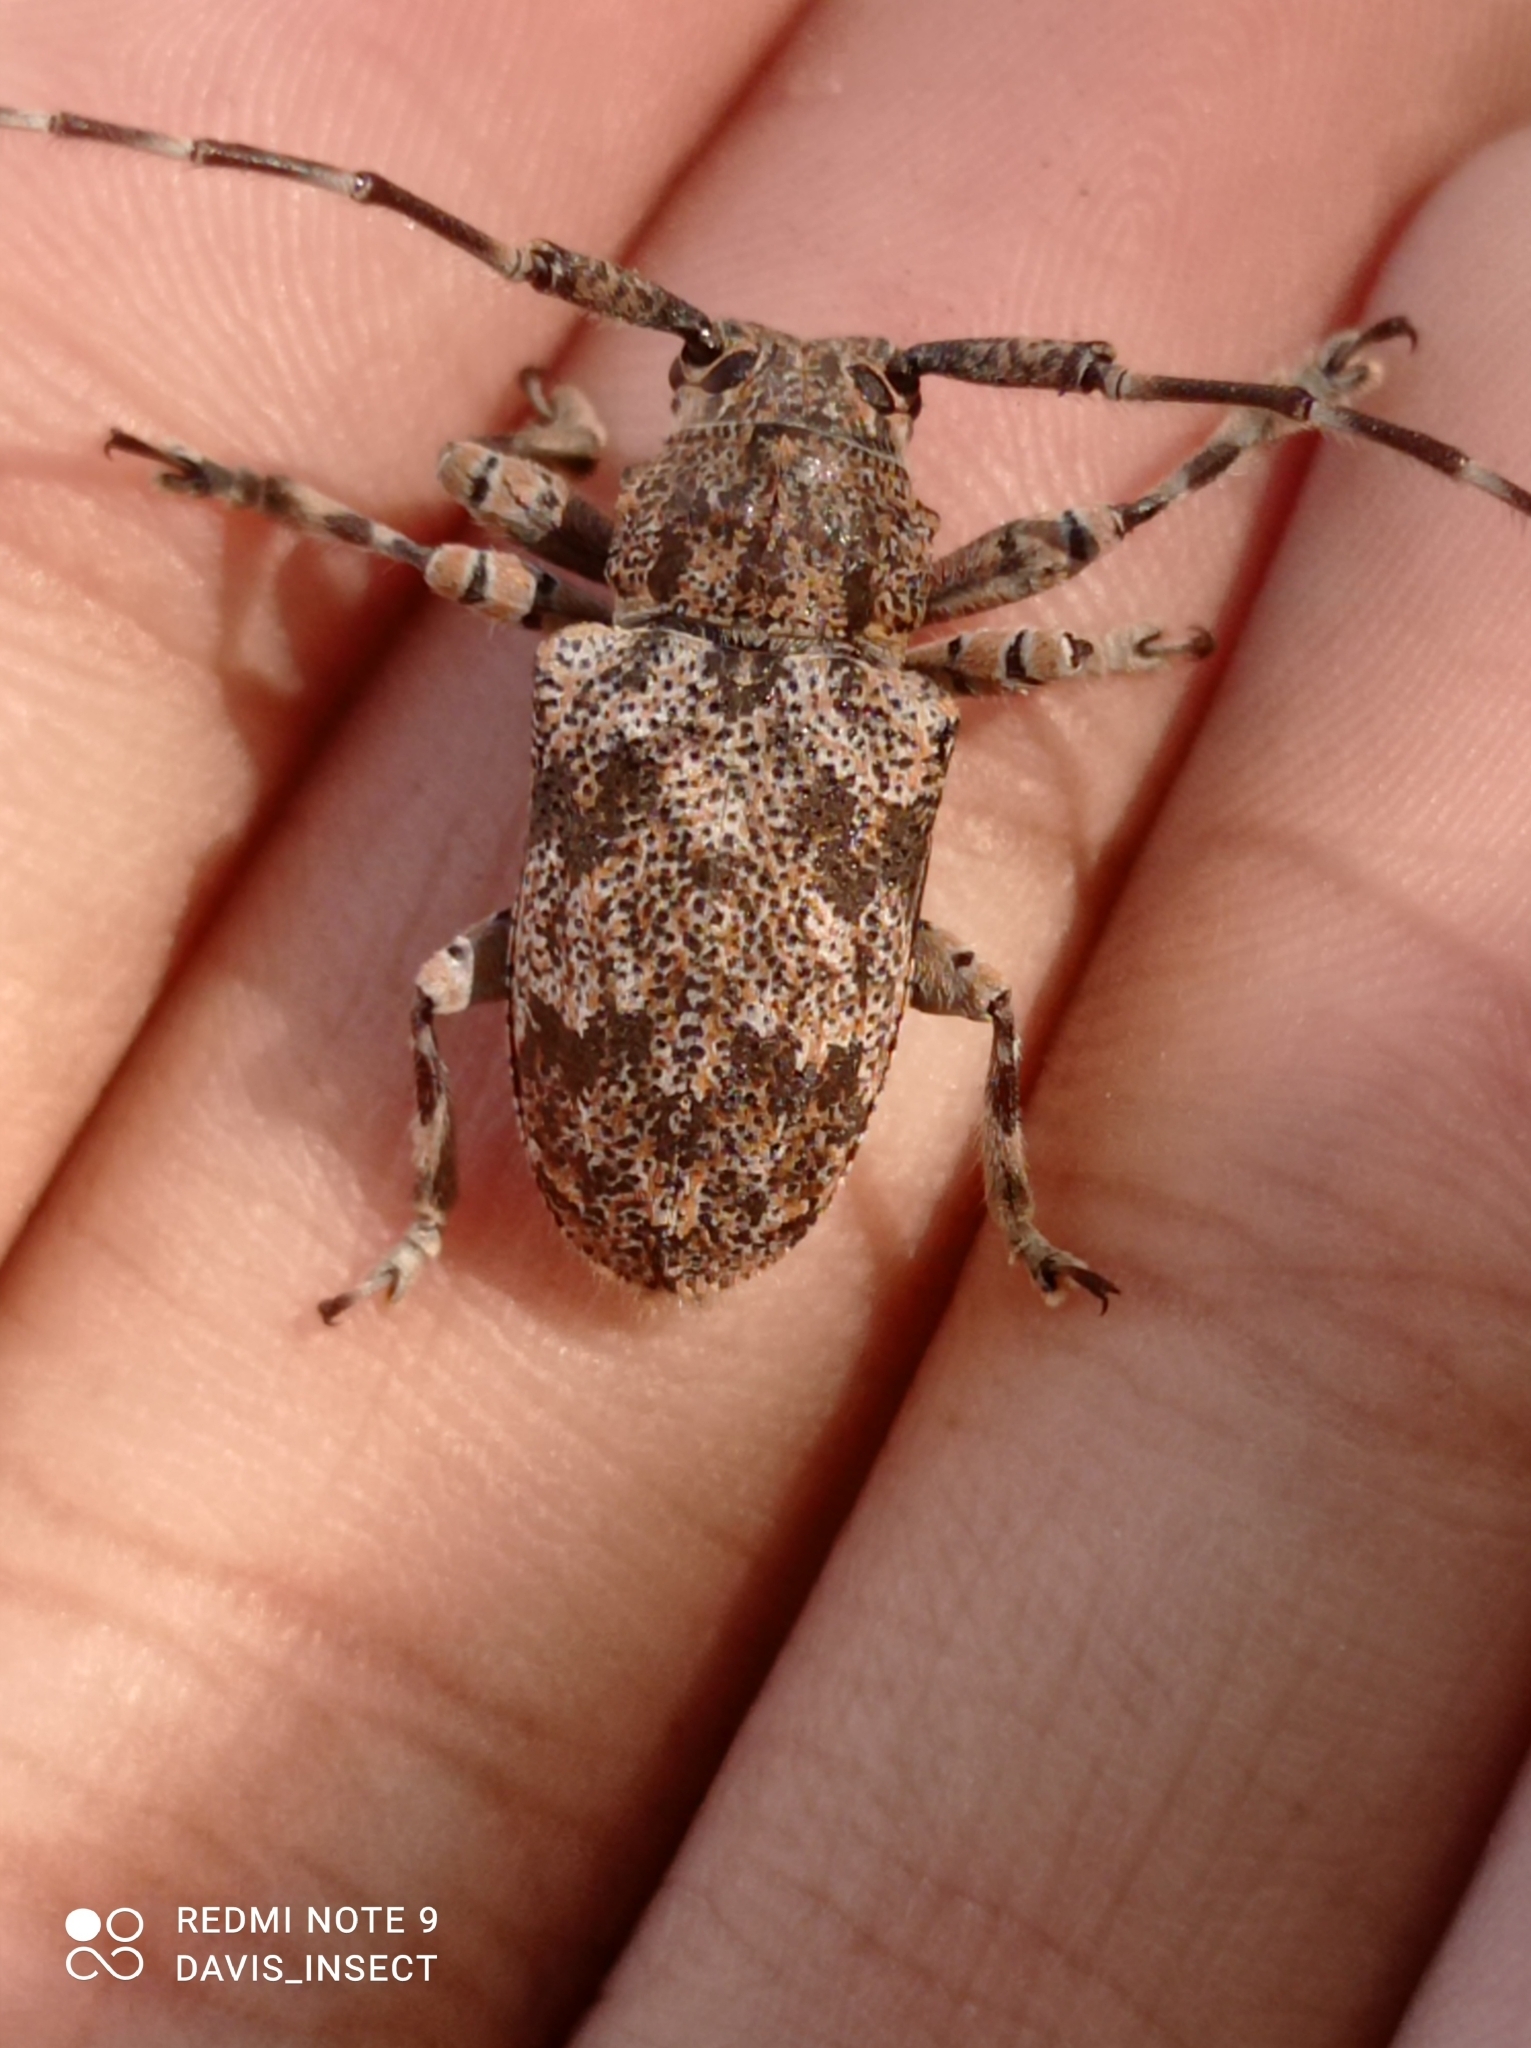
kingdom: Animalia
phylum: Arthropoda
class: Insecta
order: Coleoptera
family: Cerambycidae
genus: Coptops
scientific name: Coptops illicita
